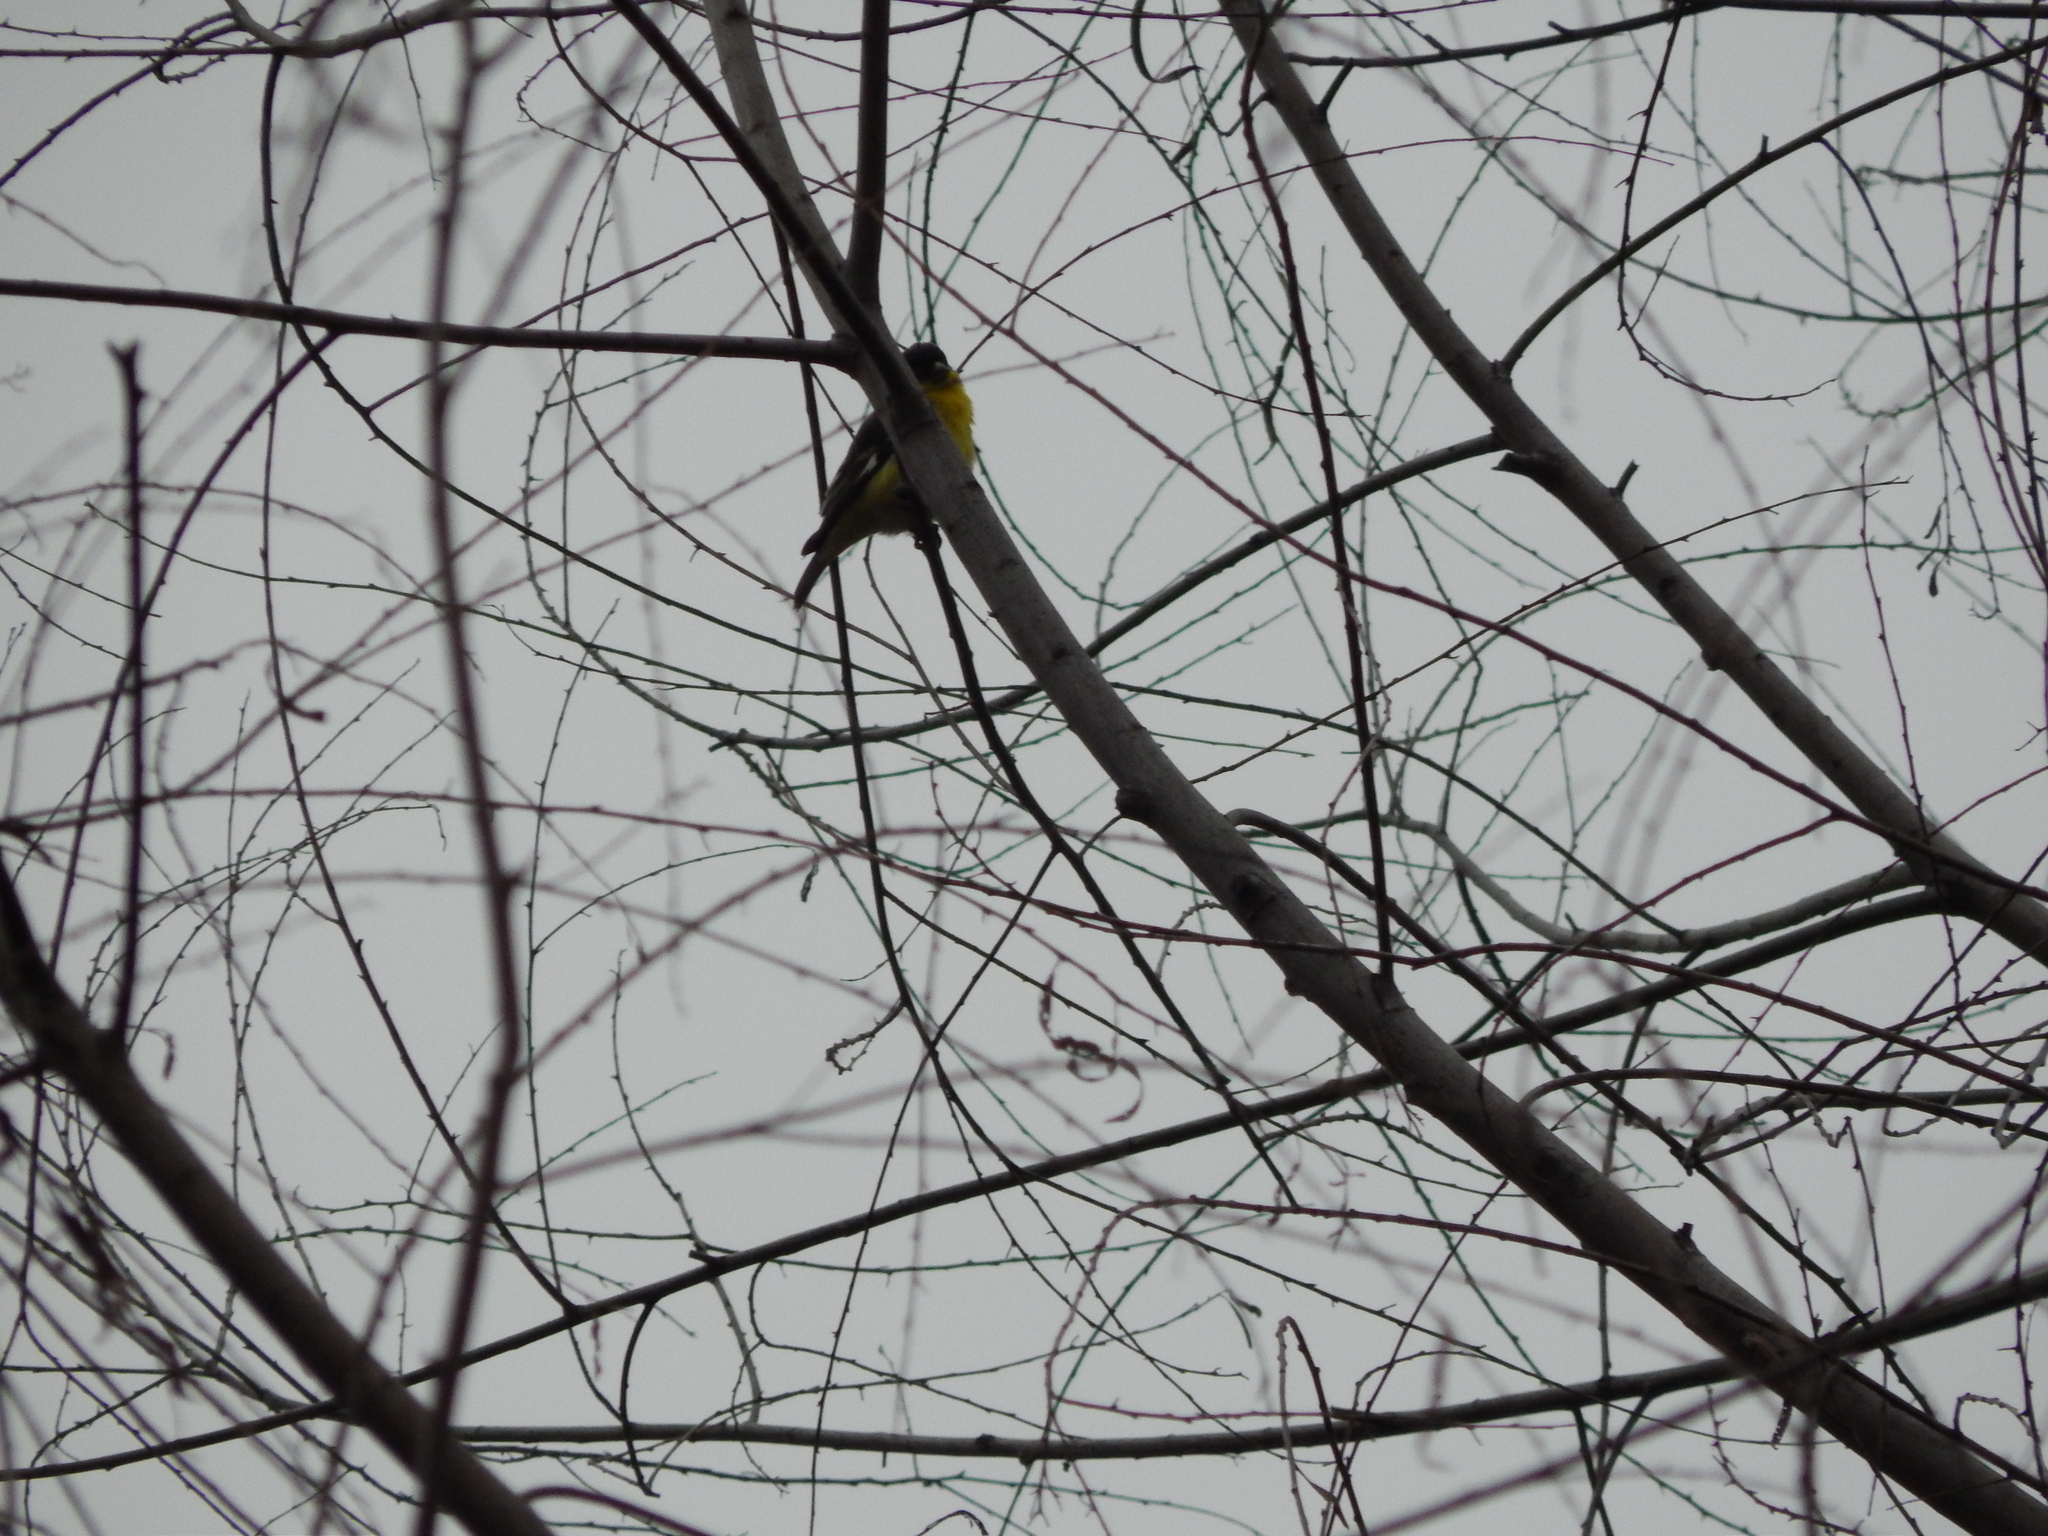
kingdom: Animalia
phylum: Chordata
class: Aves
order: Passeriformes
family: Fringillidae
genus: Spinus
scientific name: Spinus psaltria
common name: Lesser goldfinch
